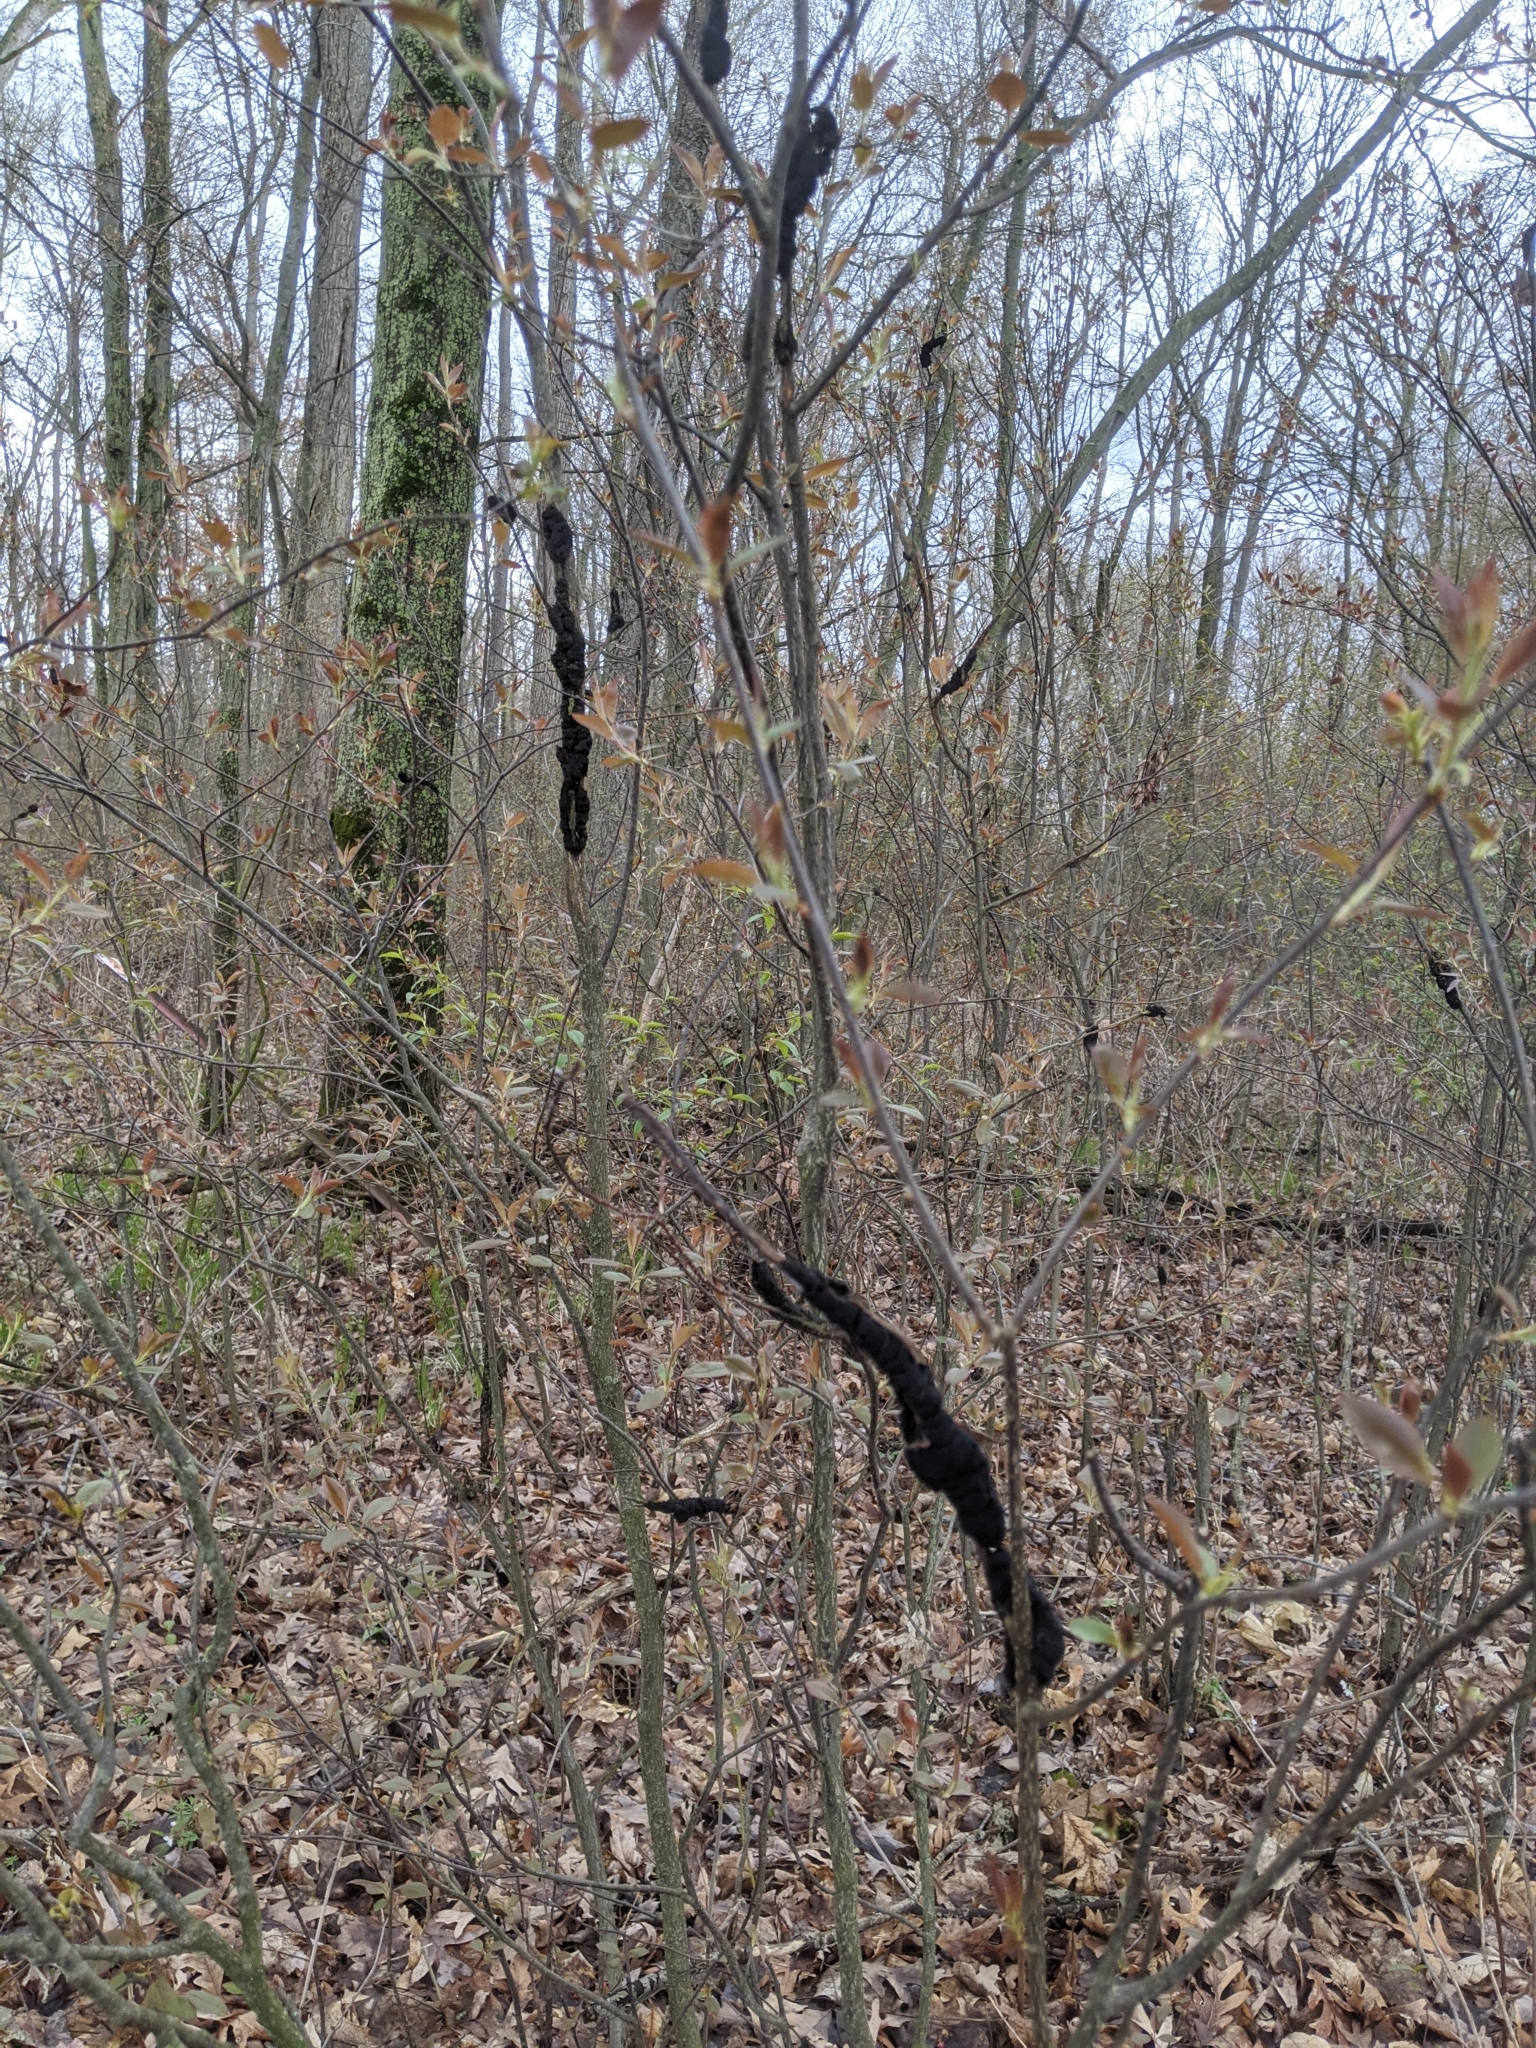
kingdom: Fungi
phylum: Ascomycota
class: Dothideomycetes
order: Venturiales
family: Venturiaceae
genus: Apiosporina
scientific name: Apiosporina morbosa
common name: Black knot
